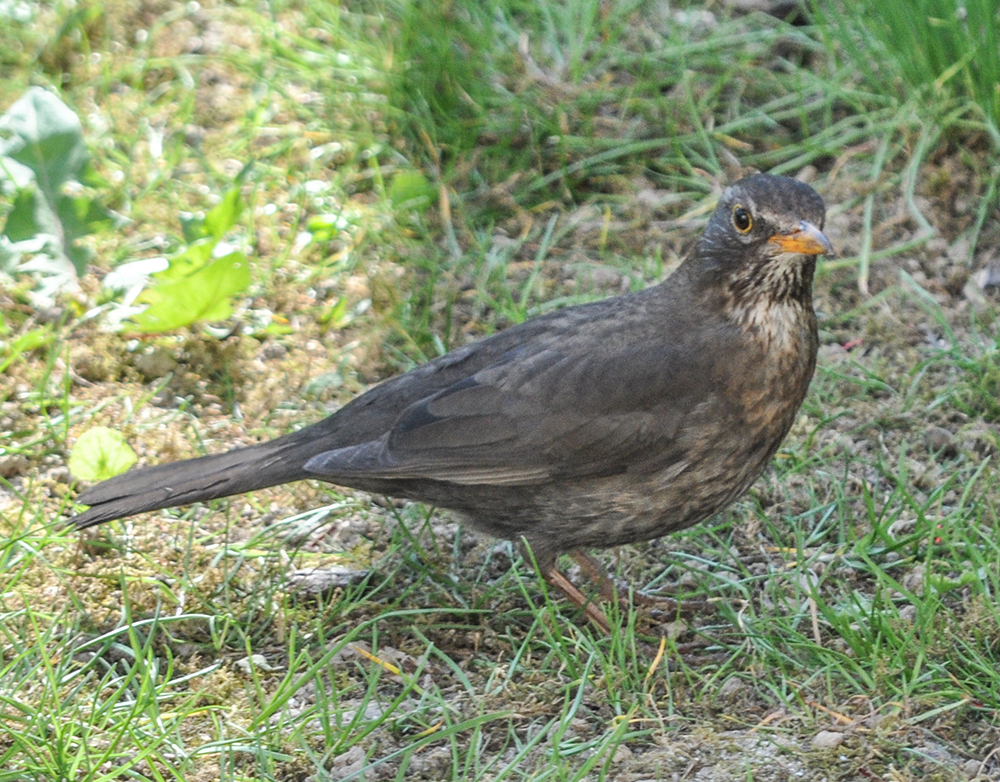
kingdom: Animalia
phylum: Chordata
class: Aves
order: Passeriformes
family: Turdidae
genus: Turdus
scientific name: Turdus merula
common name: Common blackbird
